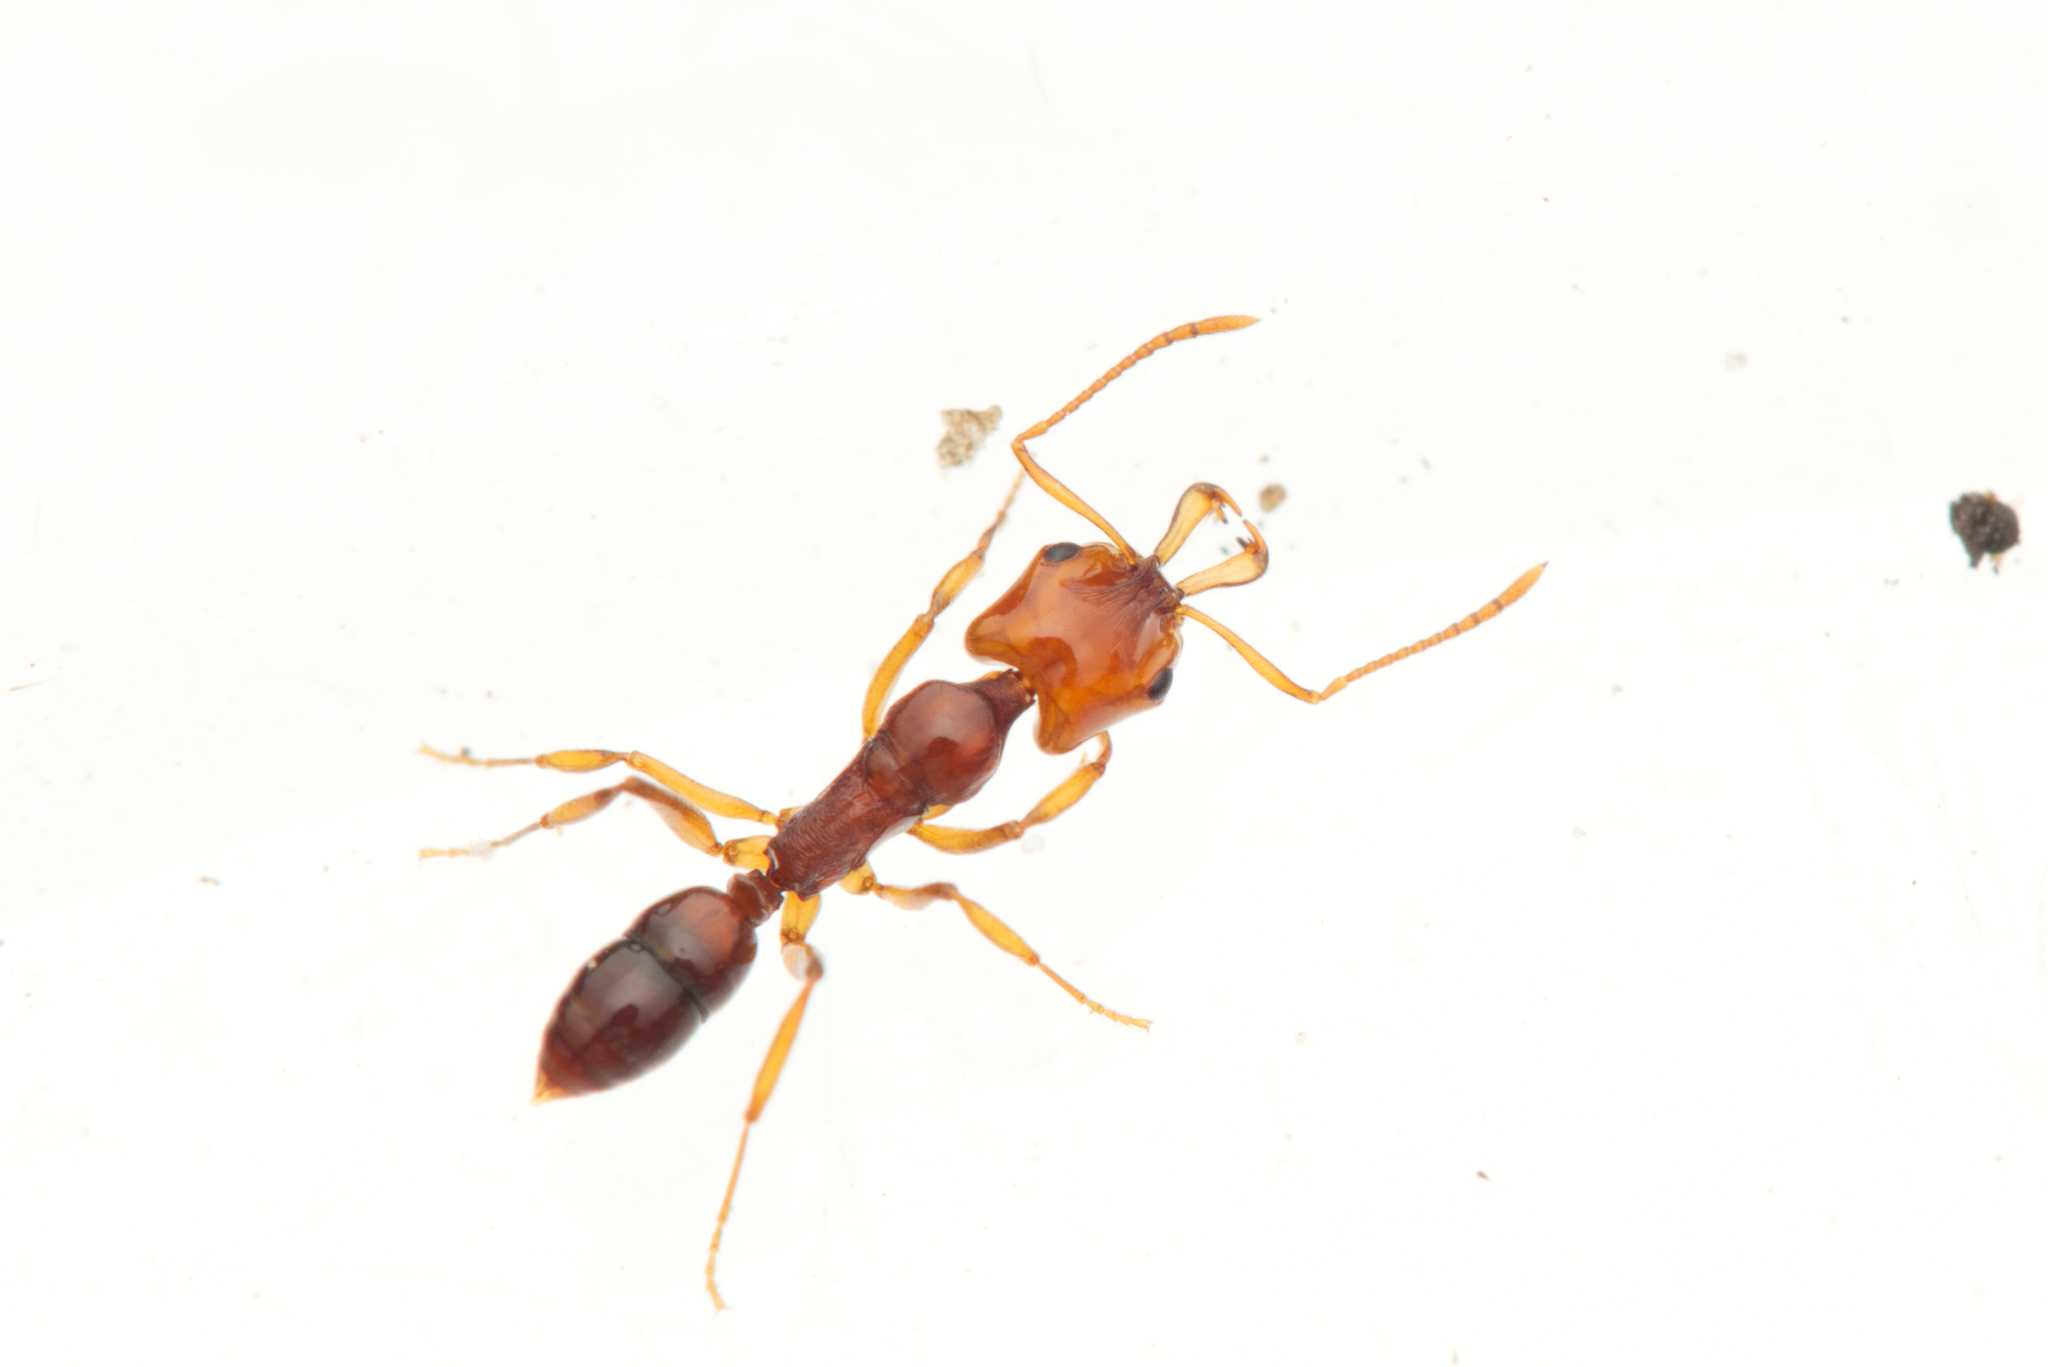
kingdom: Animalia
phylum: Arthropoda
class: Insecta
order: Hymenoptera
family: Formicidae
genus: Anochetus
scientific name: Anochetus rectangularis
